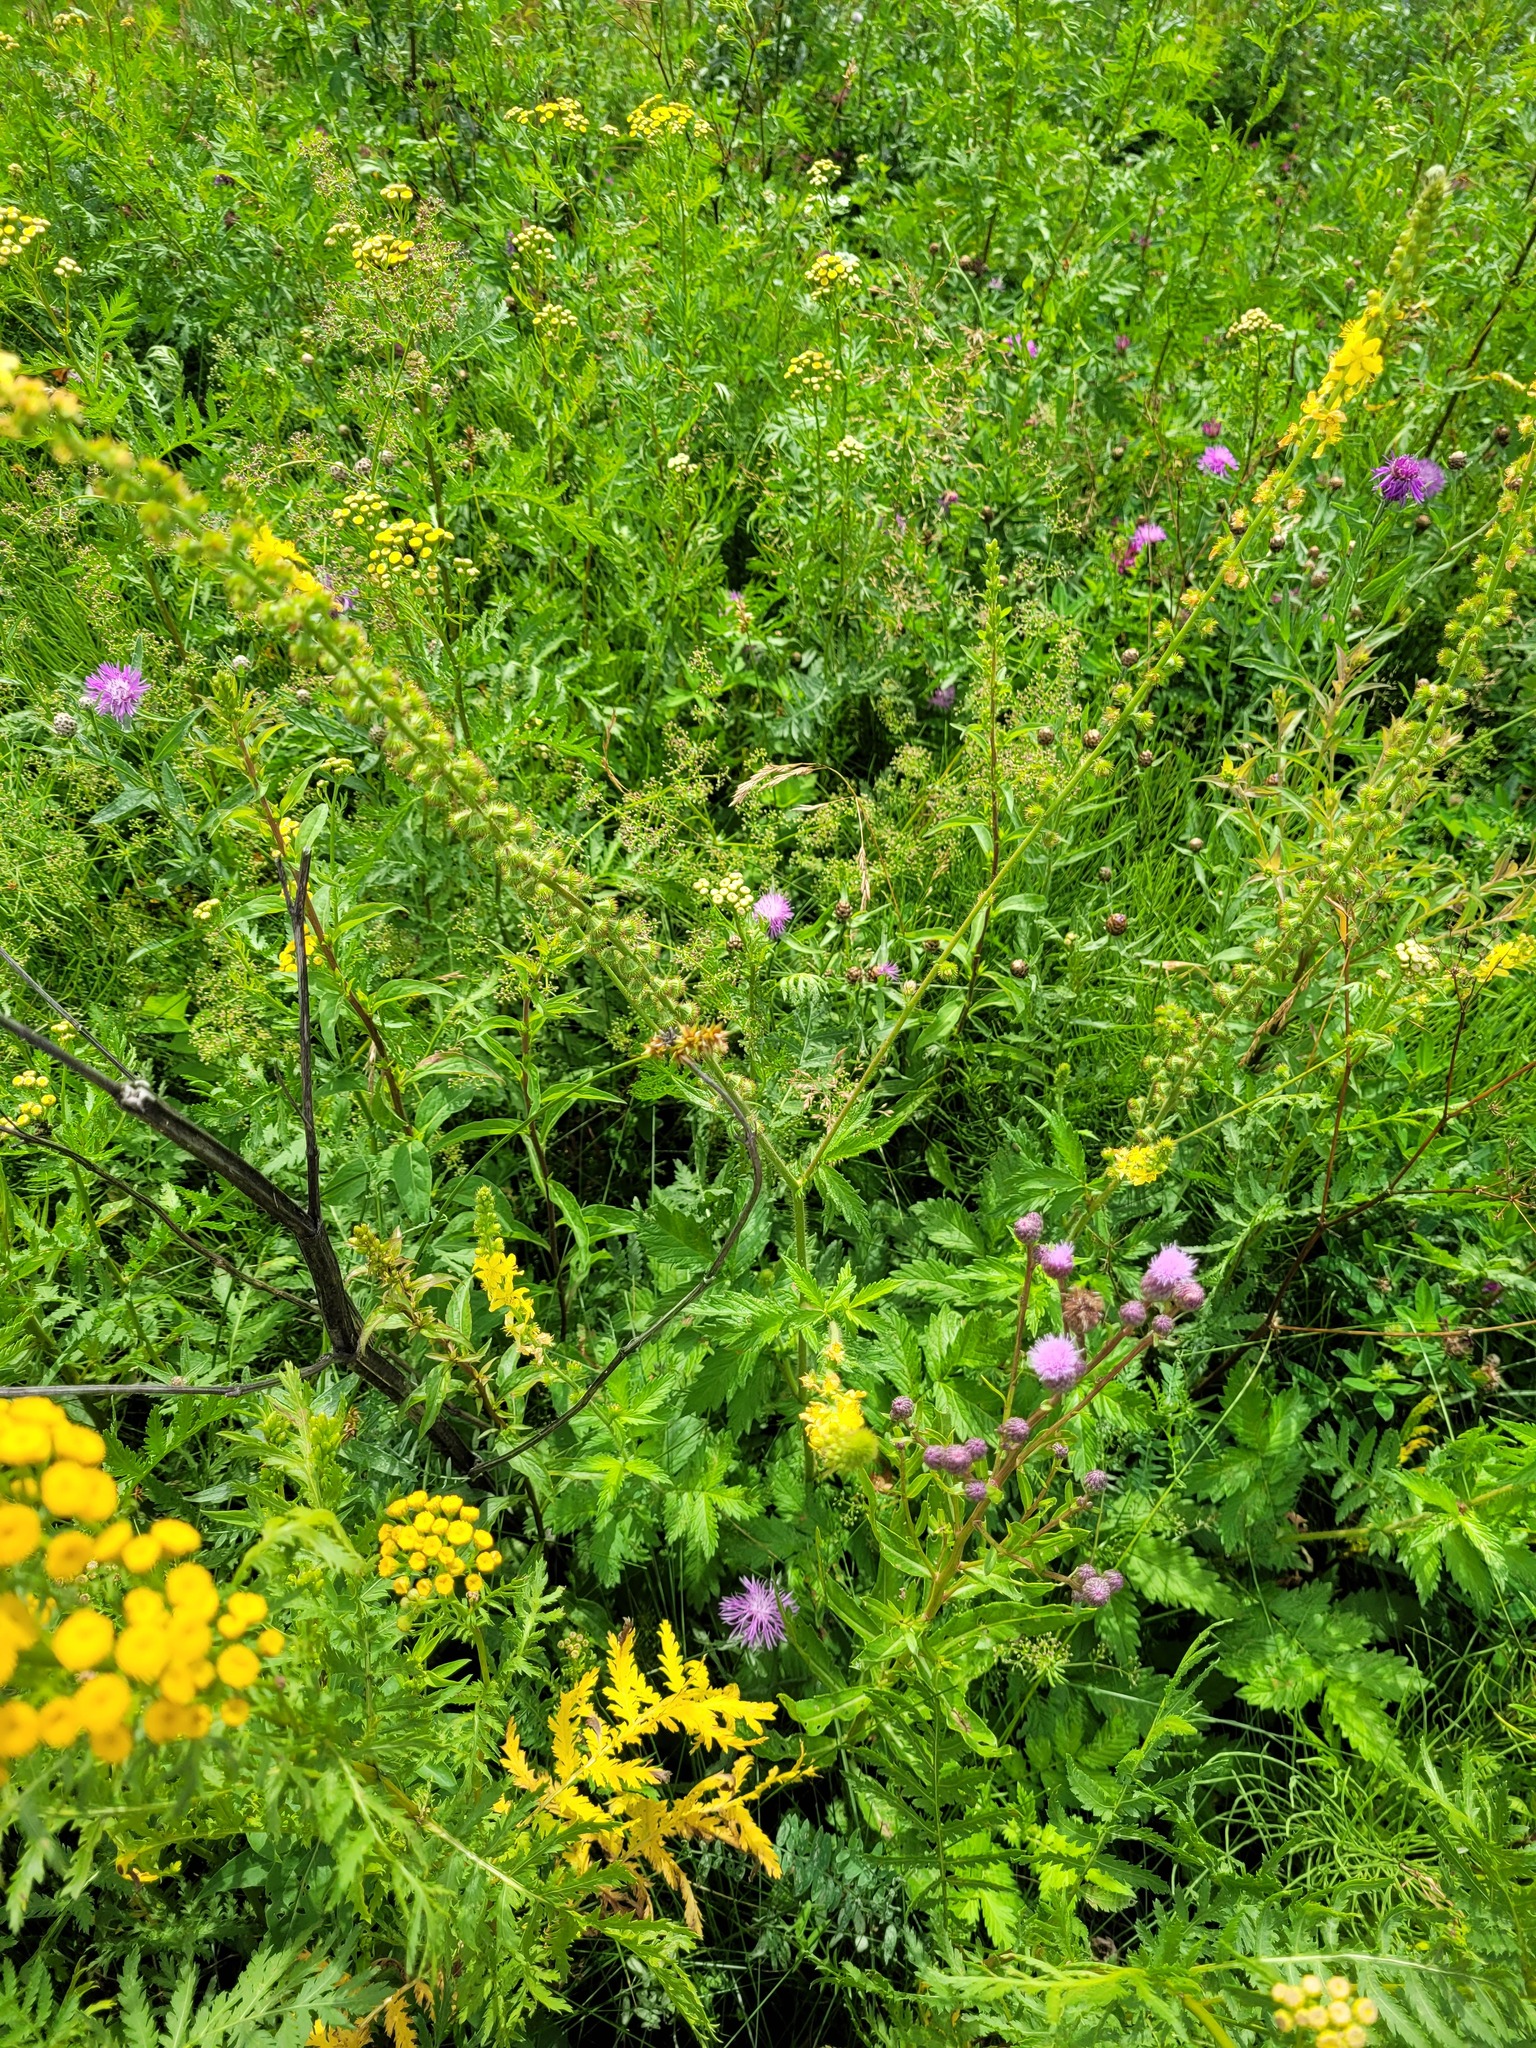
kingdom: Plantae
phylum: Tracheophyta
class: Magnoliopsida
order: Rosales
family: Rosaceae
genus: Agrimonia
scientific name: Agrimonia eupatoria
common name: Agrimony
